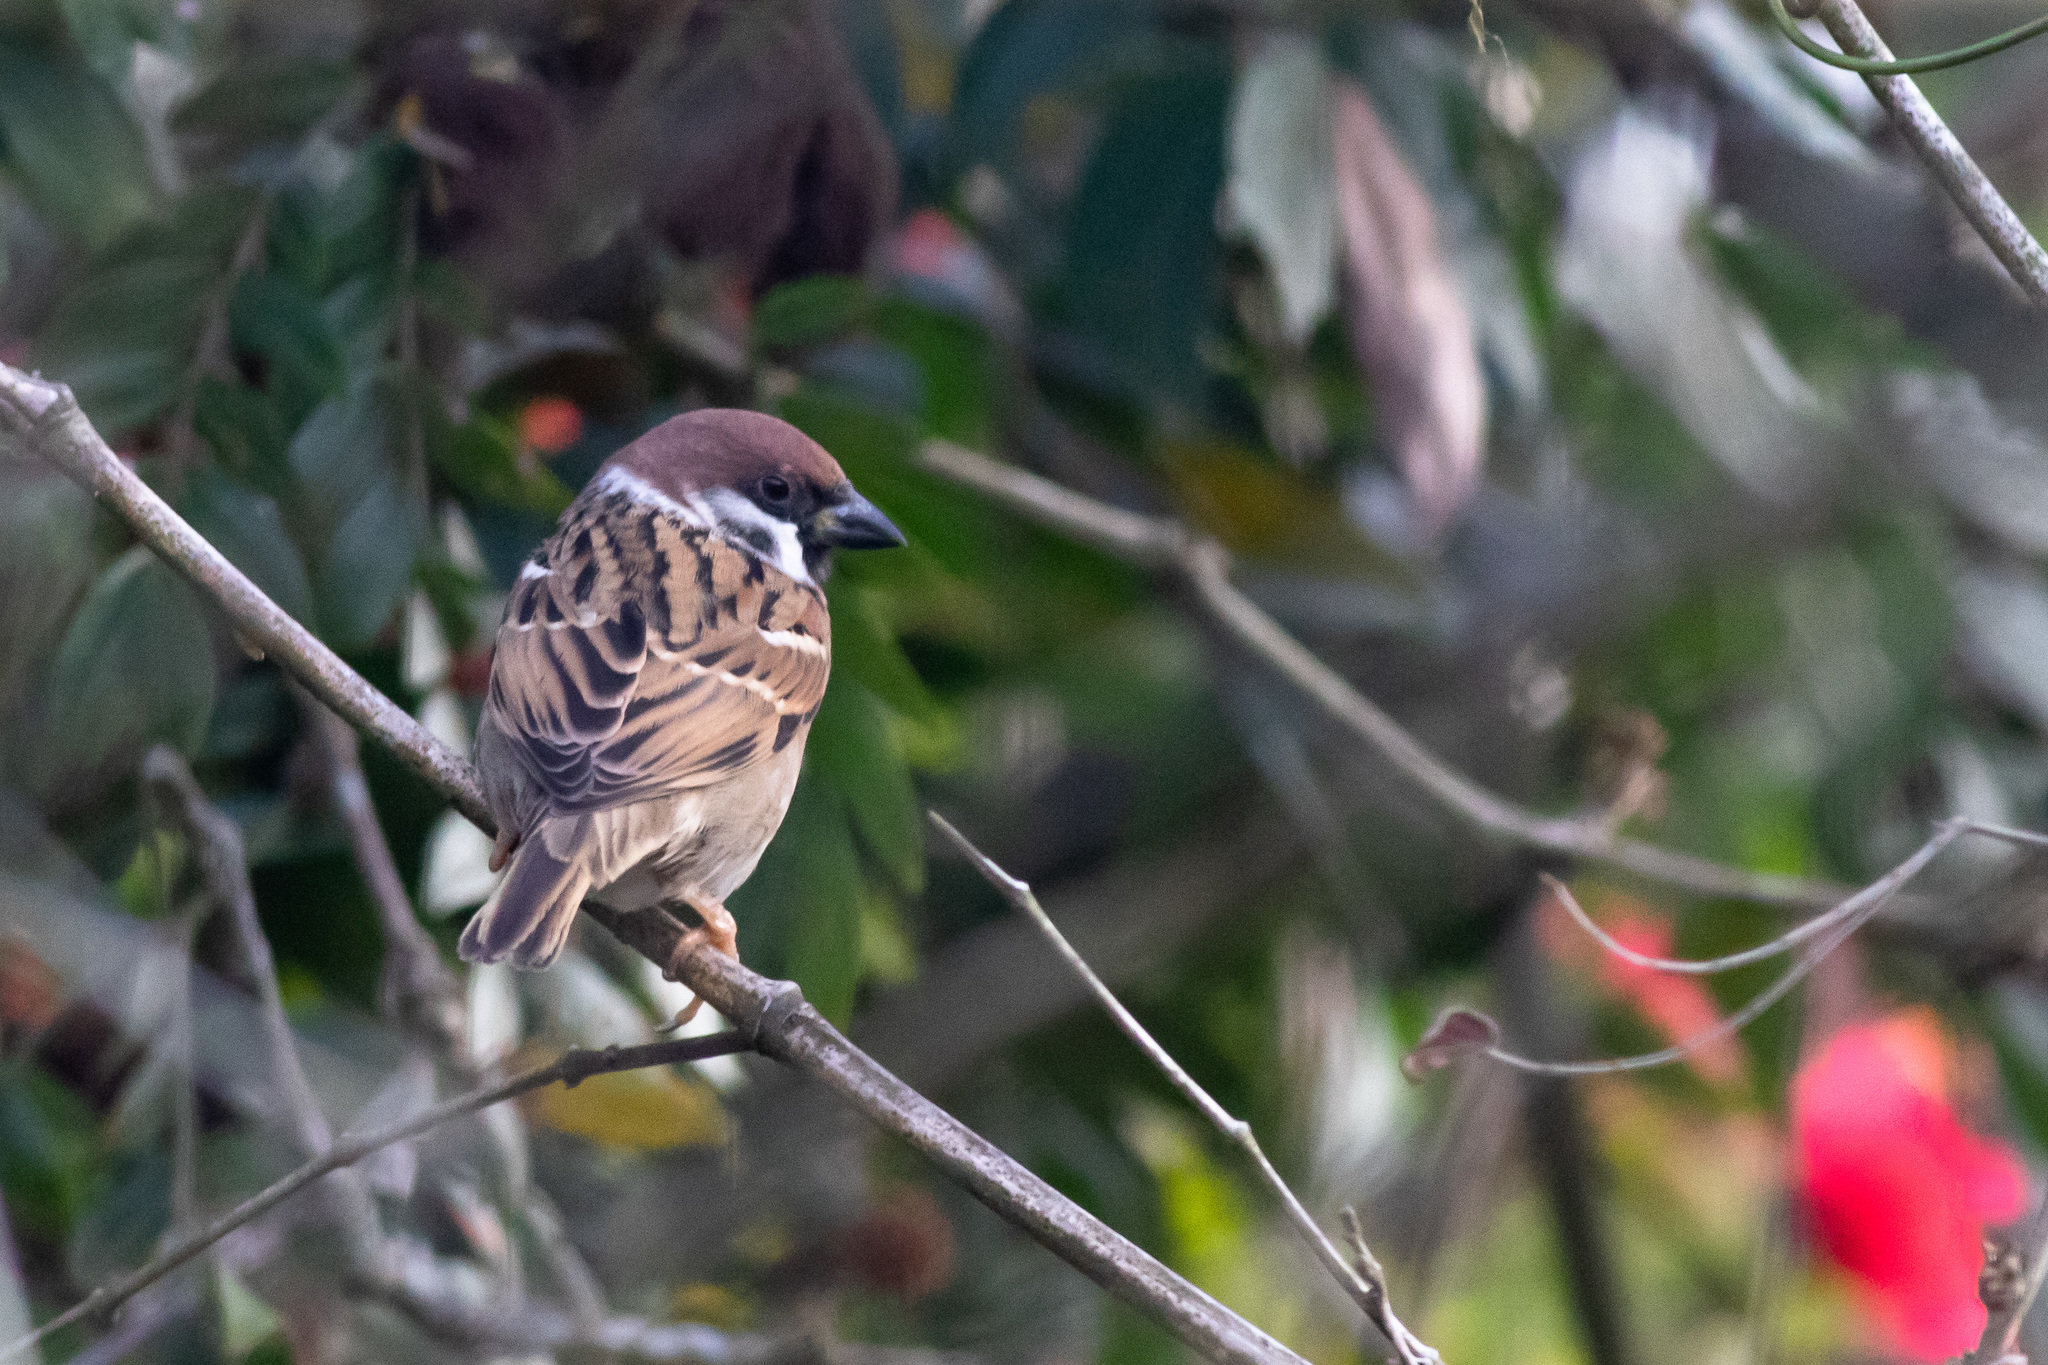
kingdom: Animalia
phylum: Chordata
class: Aves
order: Passeriformes
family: Passeridae
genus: Passer
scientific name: Passer montanus
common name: Eurasian tree sparrow
